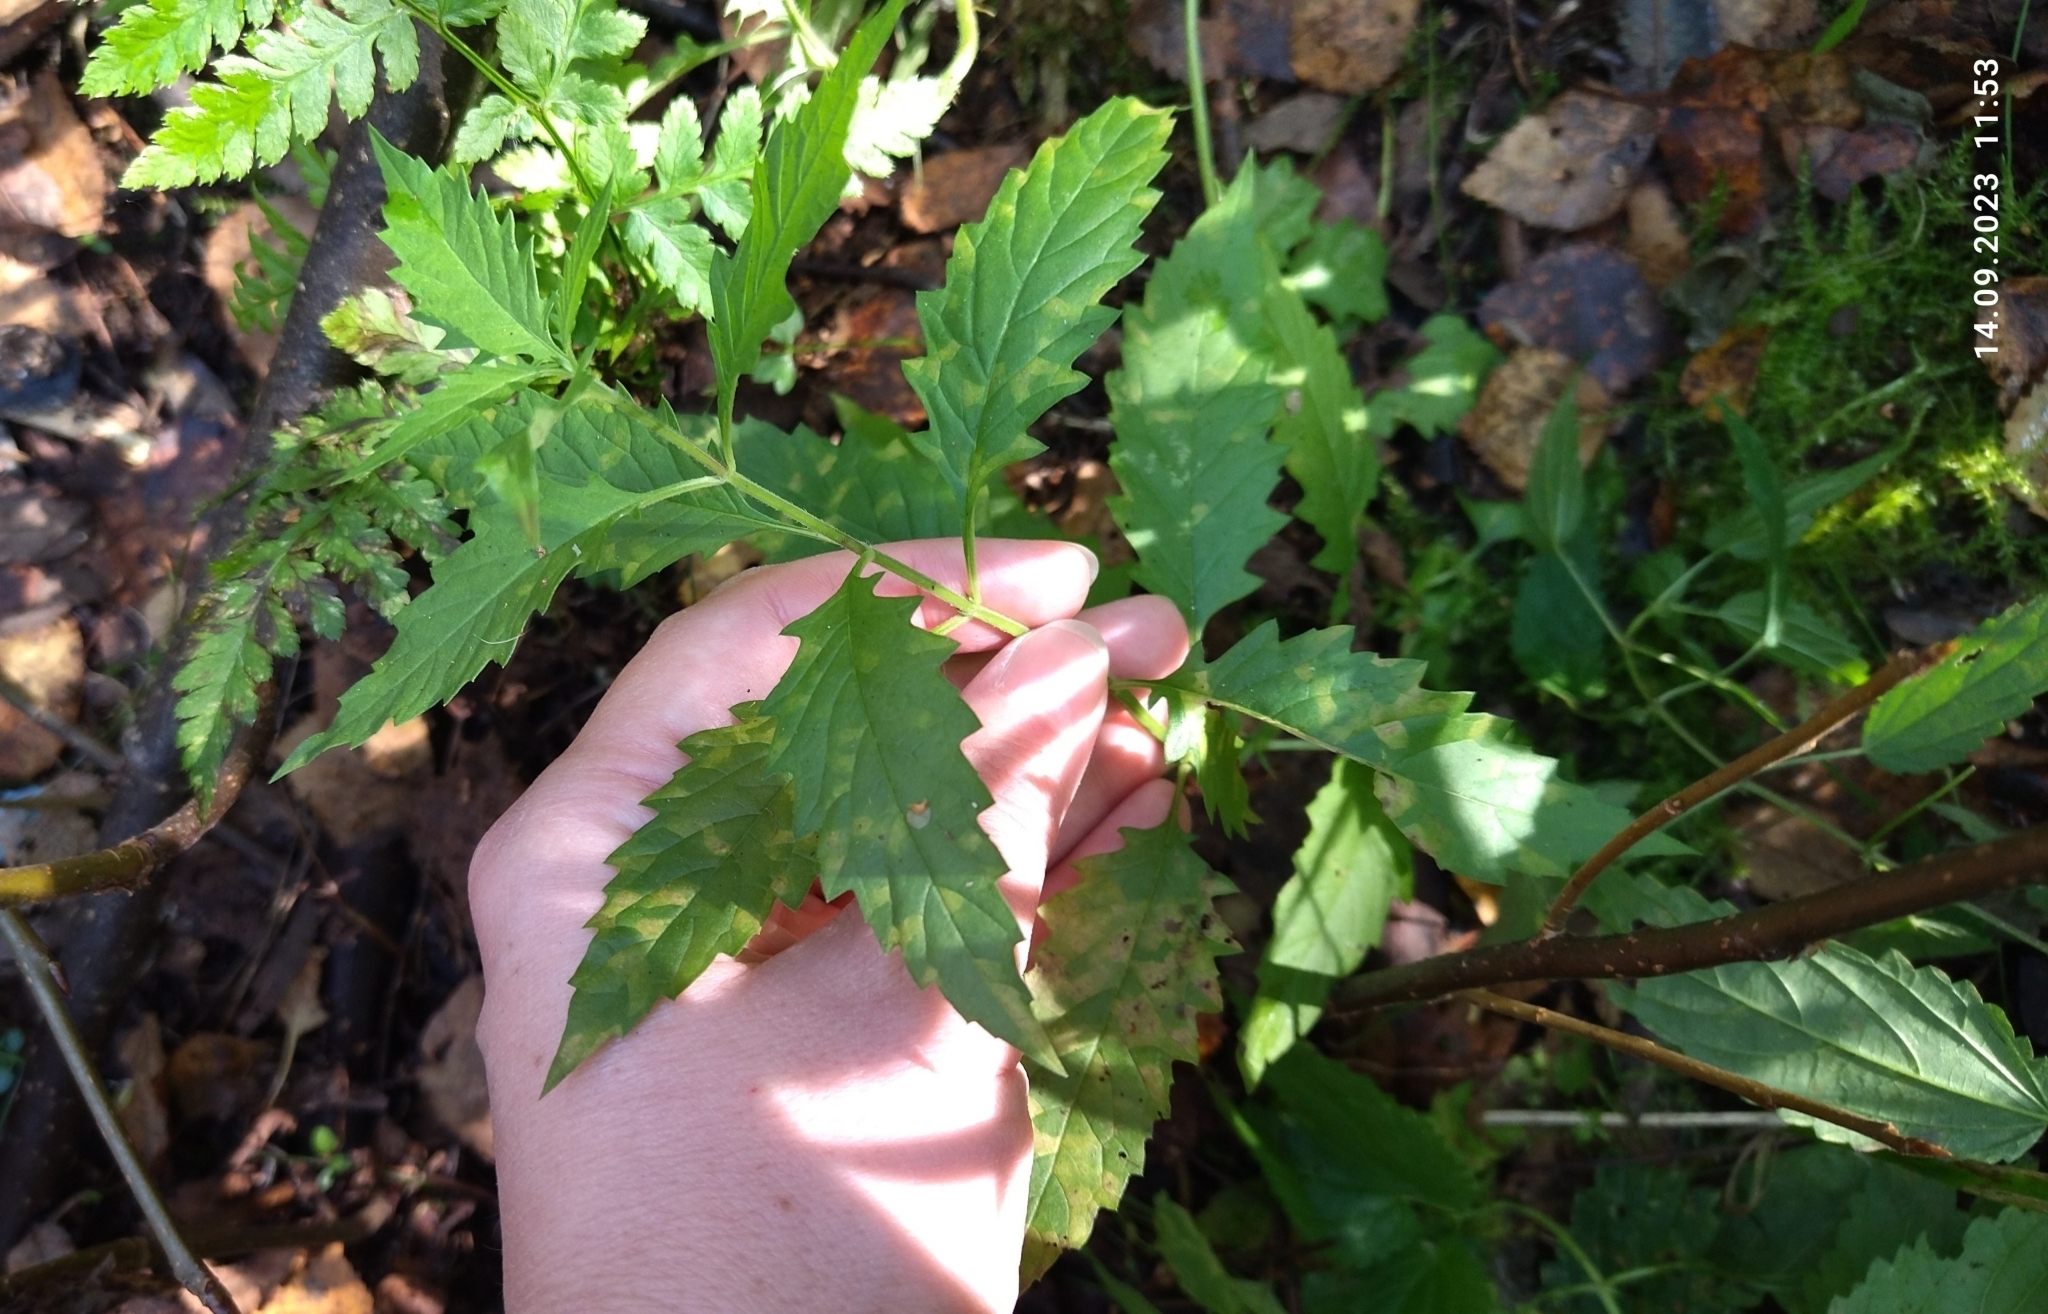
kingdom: Plantae
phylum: Tracheophyta
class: Magnoliopsida
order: Lamiales
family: Lamiaceae
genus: Lycopus
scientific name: Lycopus europaeus
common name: European bugleweed
